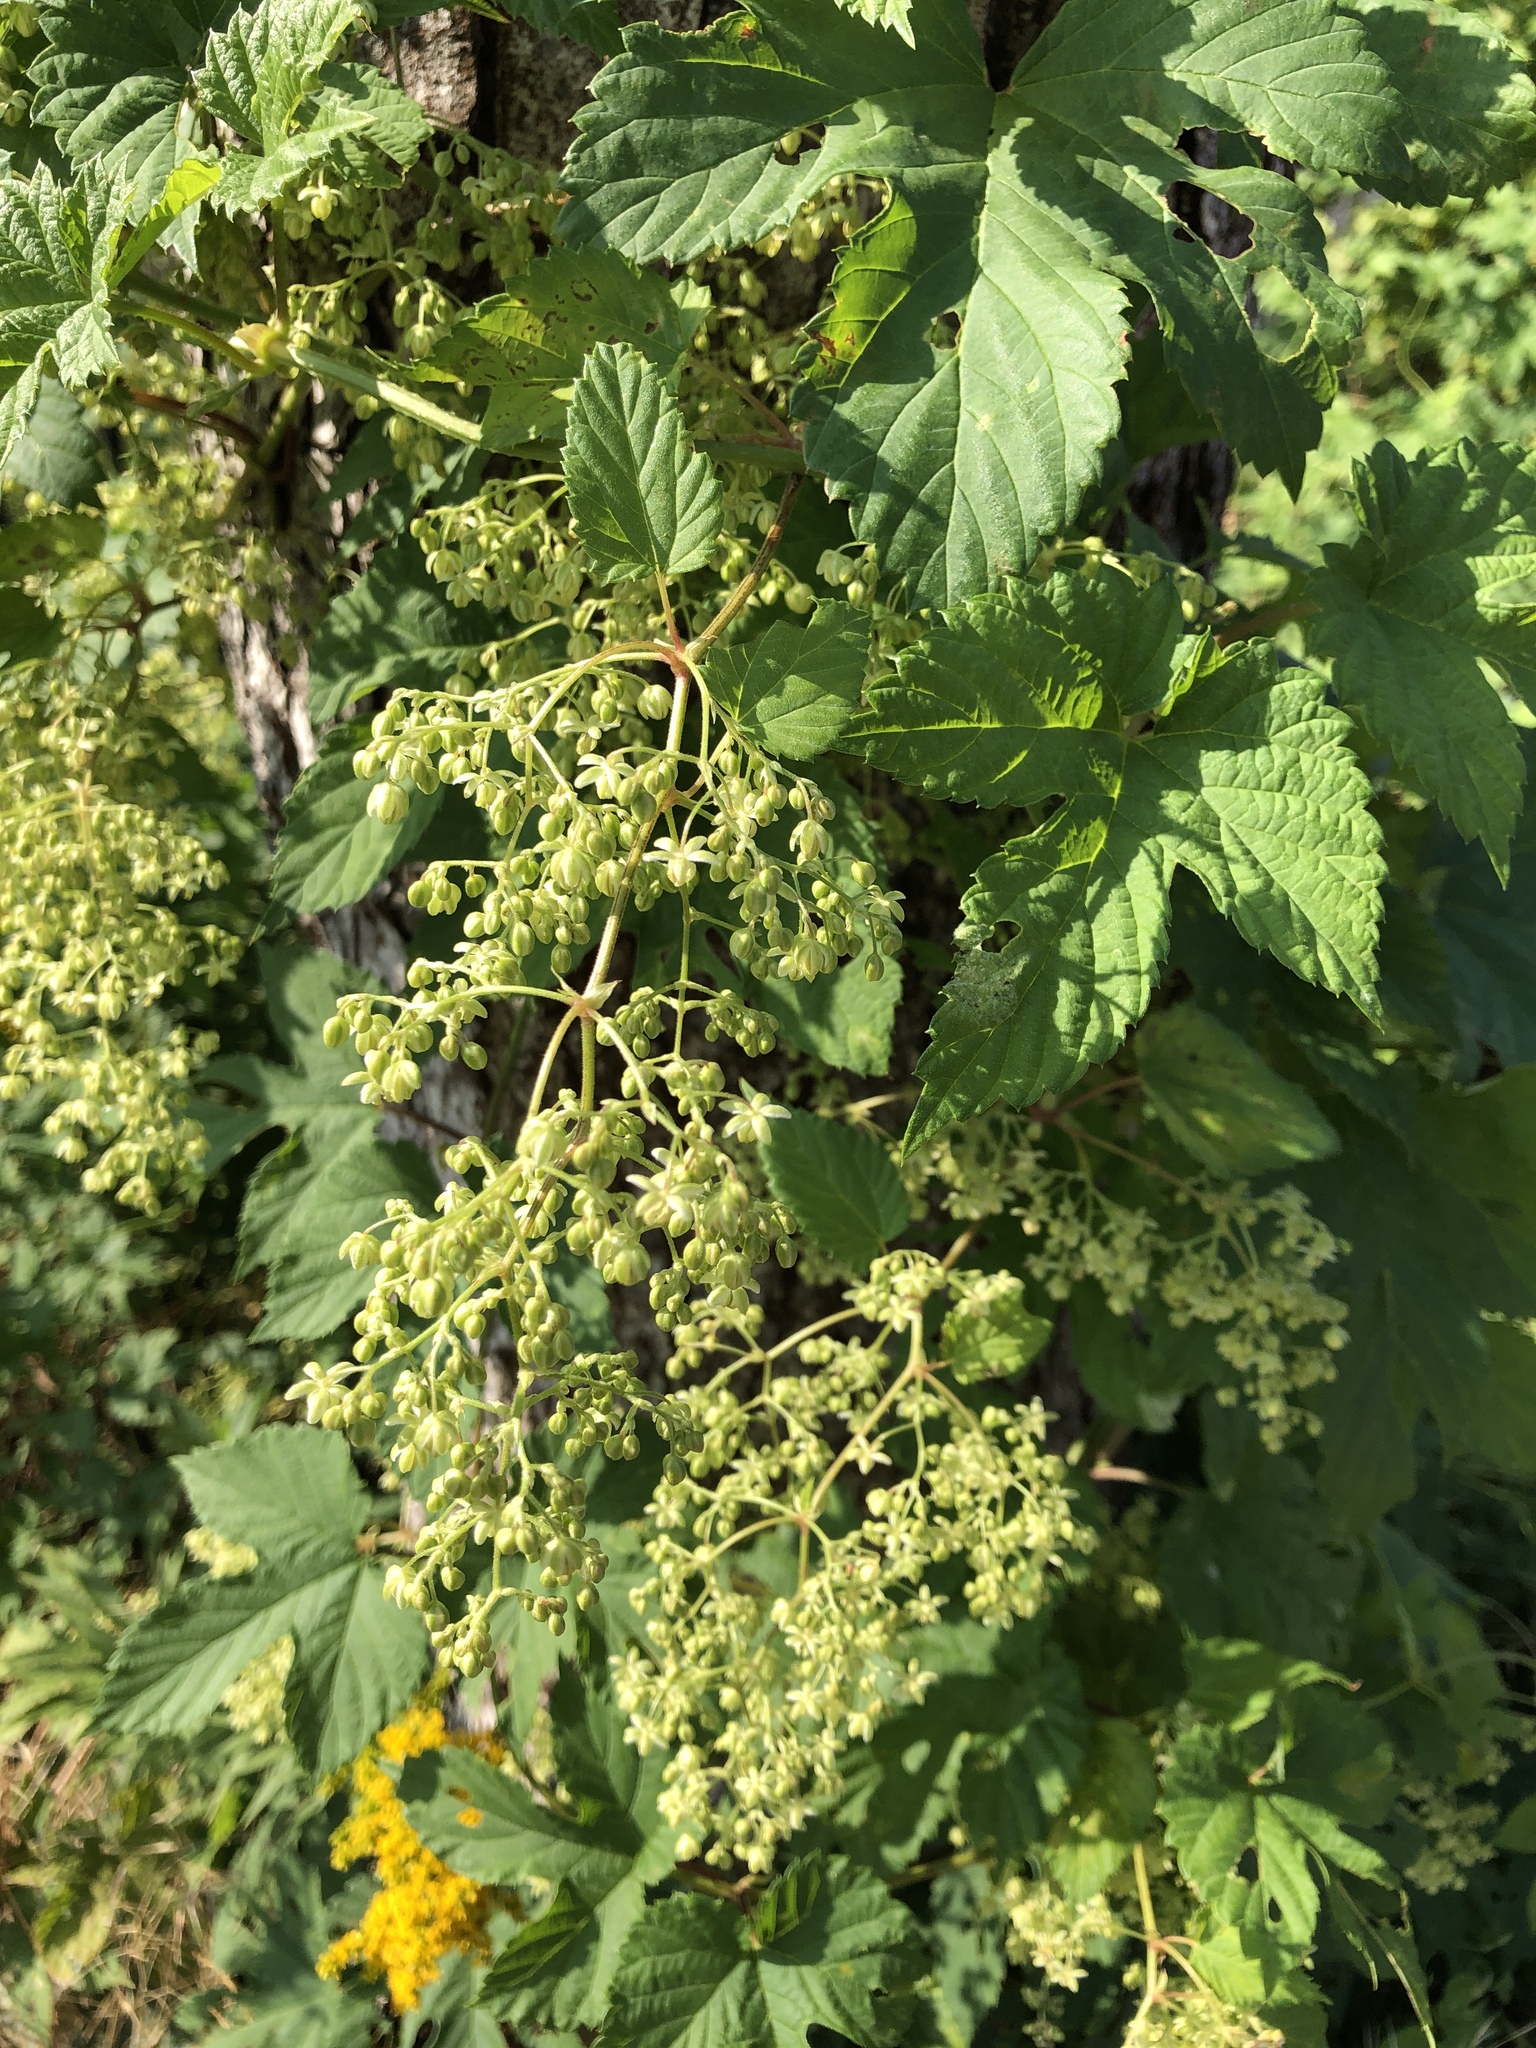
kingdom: Plantae
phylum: Tracheophyta
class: Magnoliopsida
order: Rosales
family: Cannabaceae
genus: Humulus
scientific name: Humulus lupulus
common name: Hop
